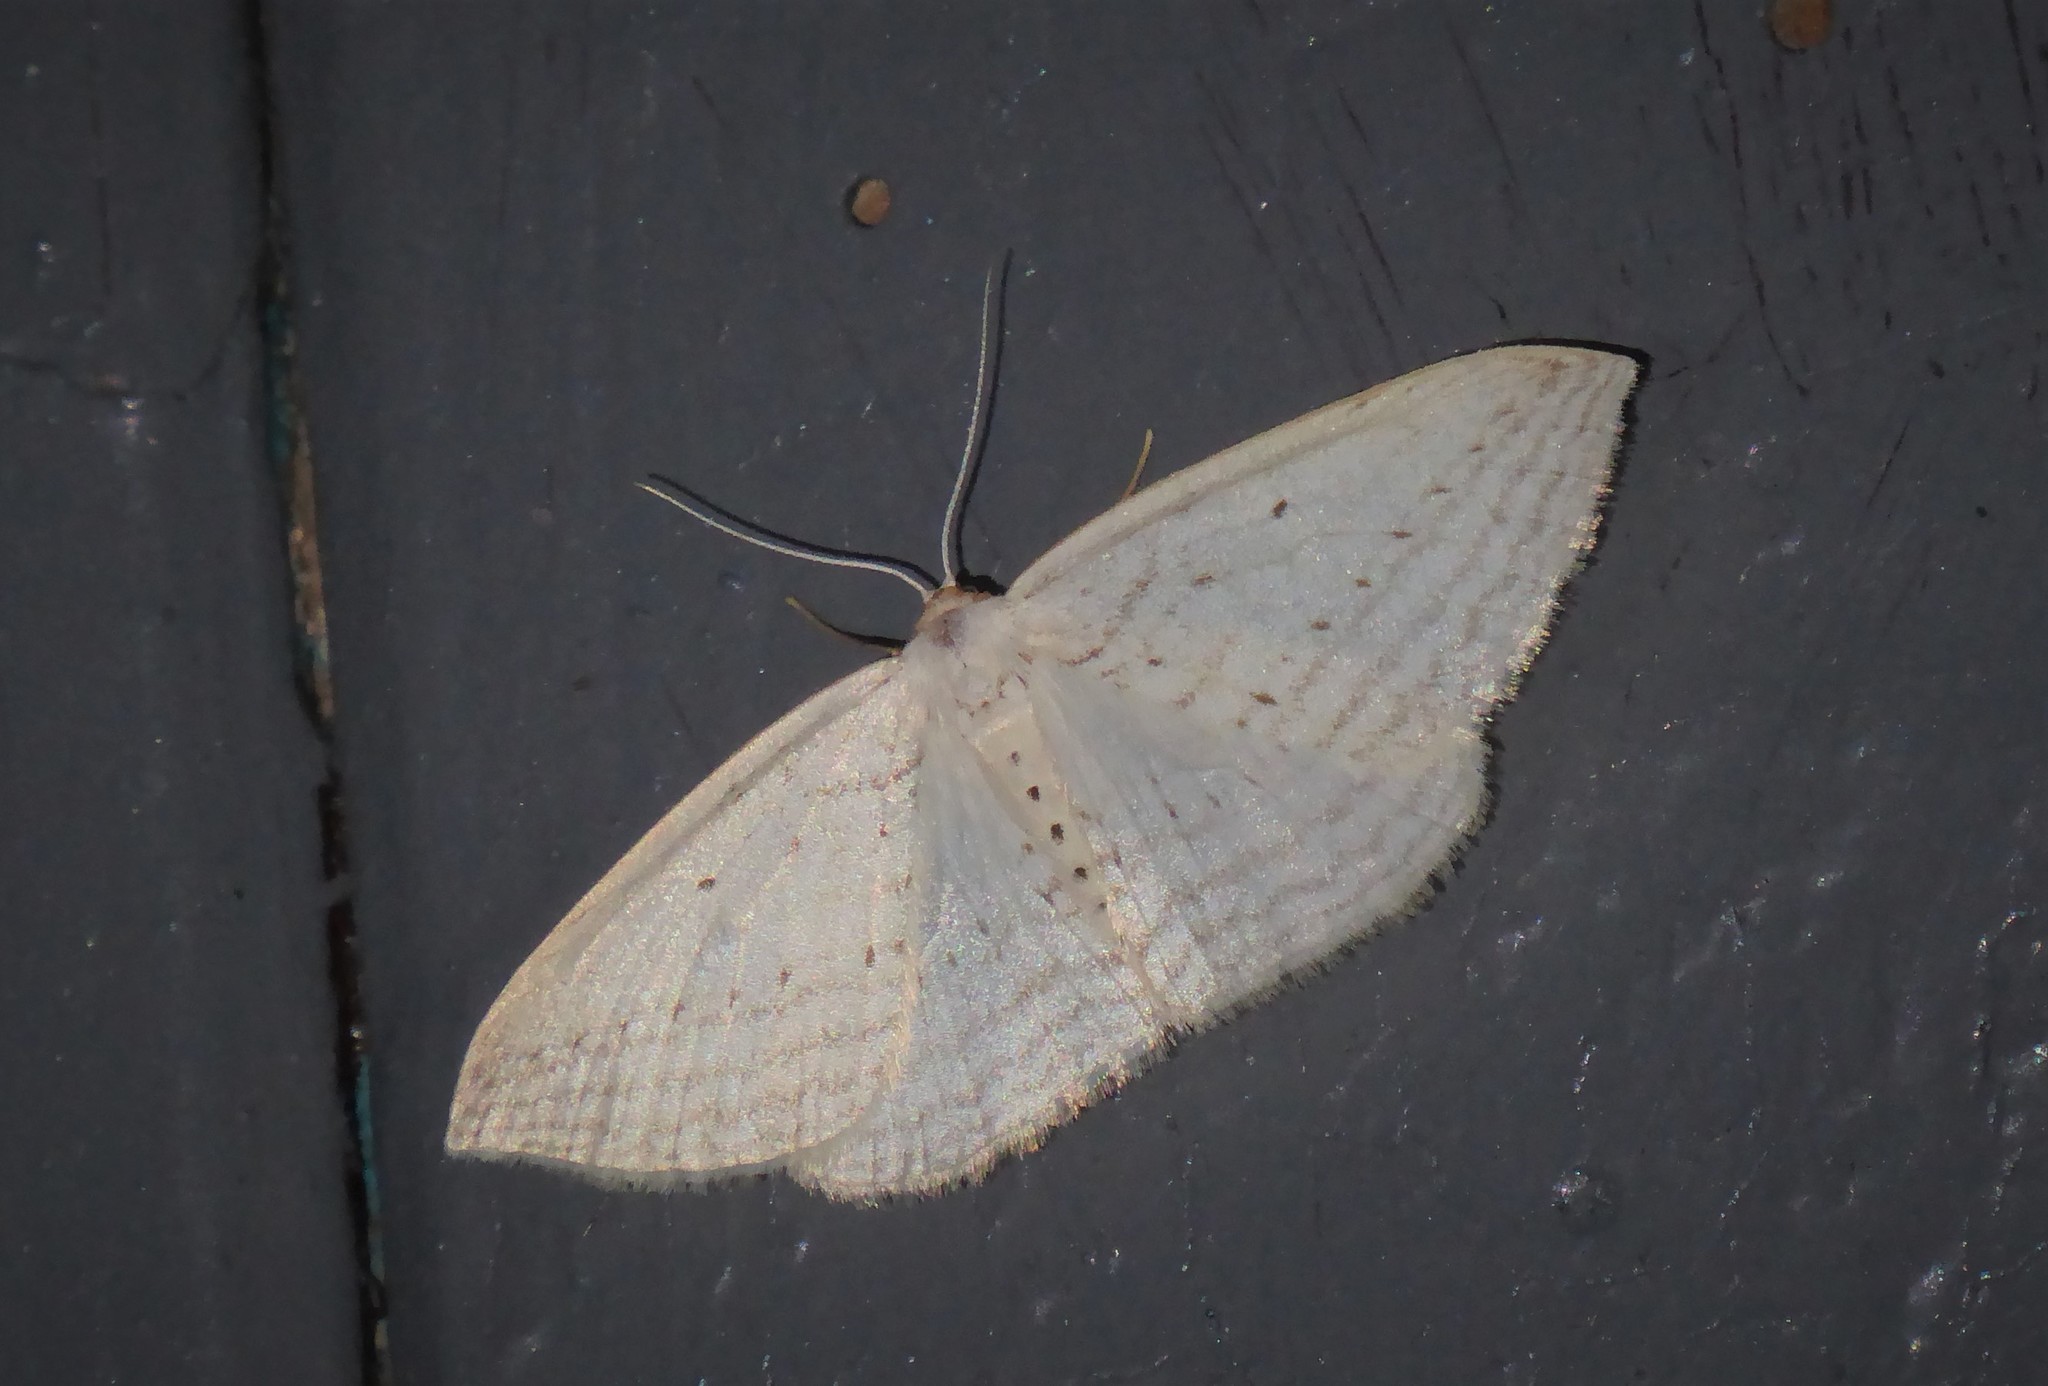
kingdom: Animalia
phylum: Arthropoda
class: Insecta
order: Lepidoptera
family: Geometridae
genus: Orthoclydon
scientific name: Orthoclydon praefectata
